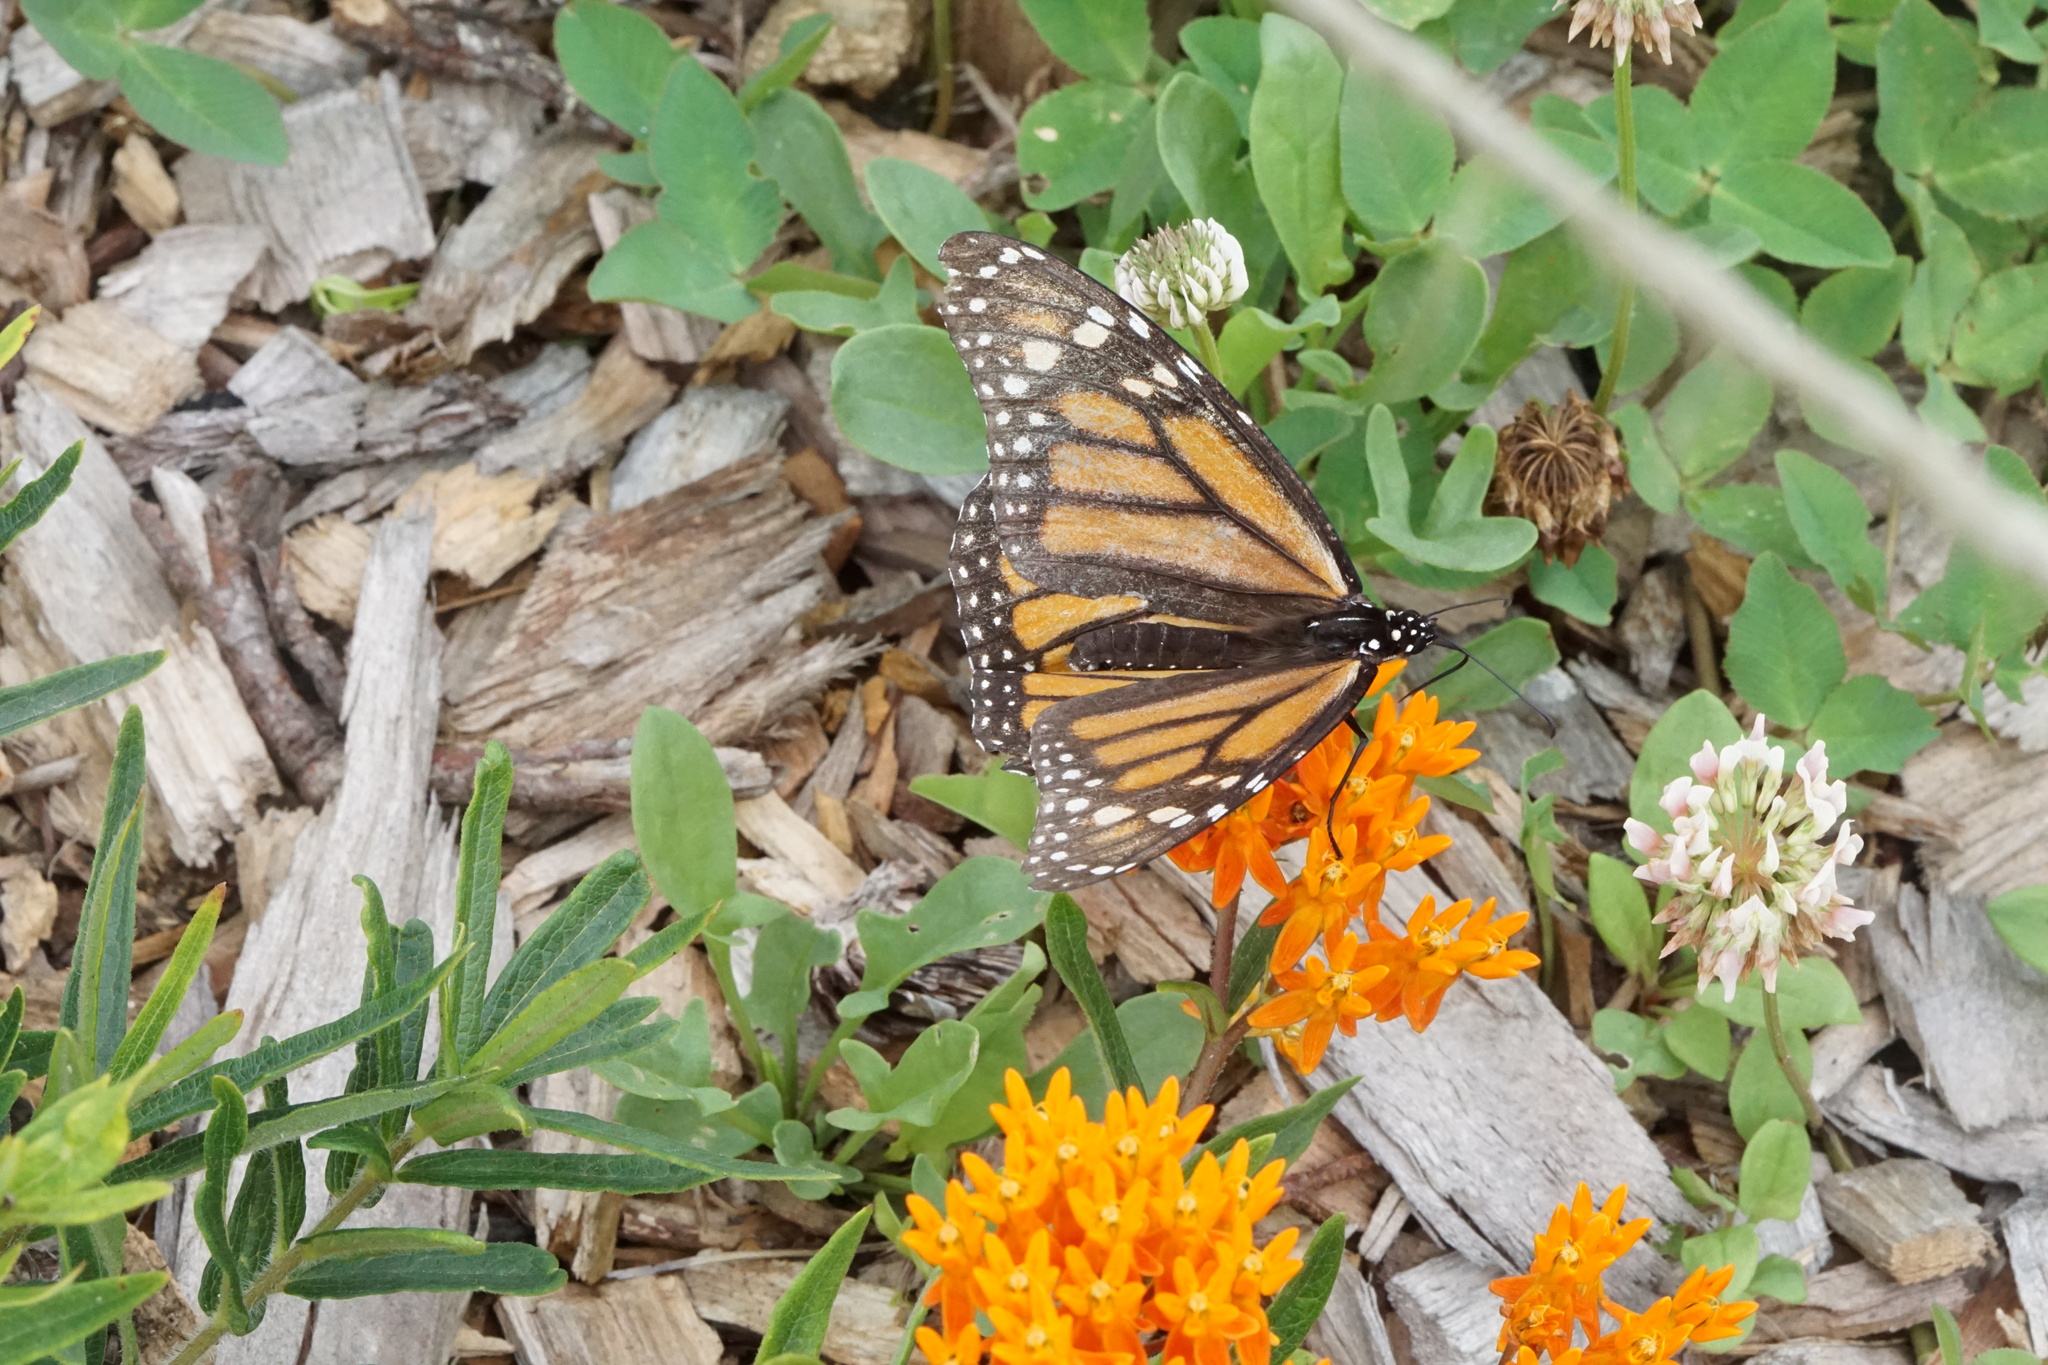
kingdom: Animalia
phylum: Arthropoda
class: Insecta
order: Lepidoptera
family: Nymphalidae
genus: Danaus
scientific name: Danaus plexippus
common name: Monarch
